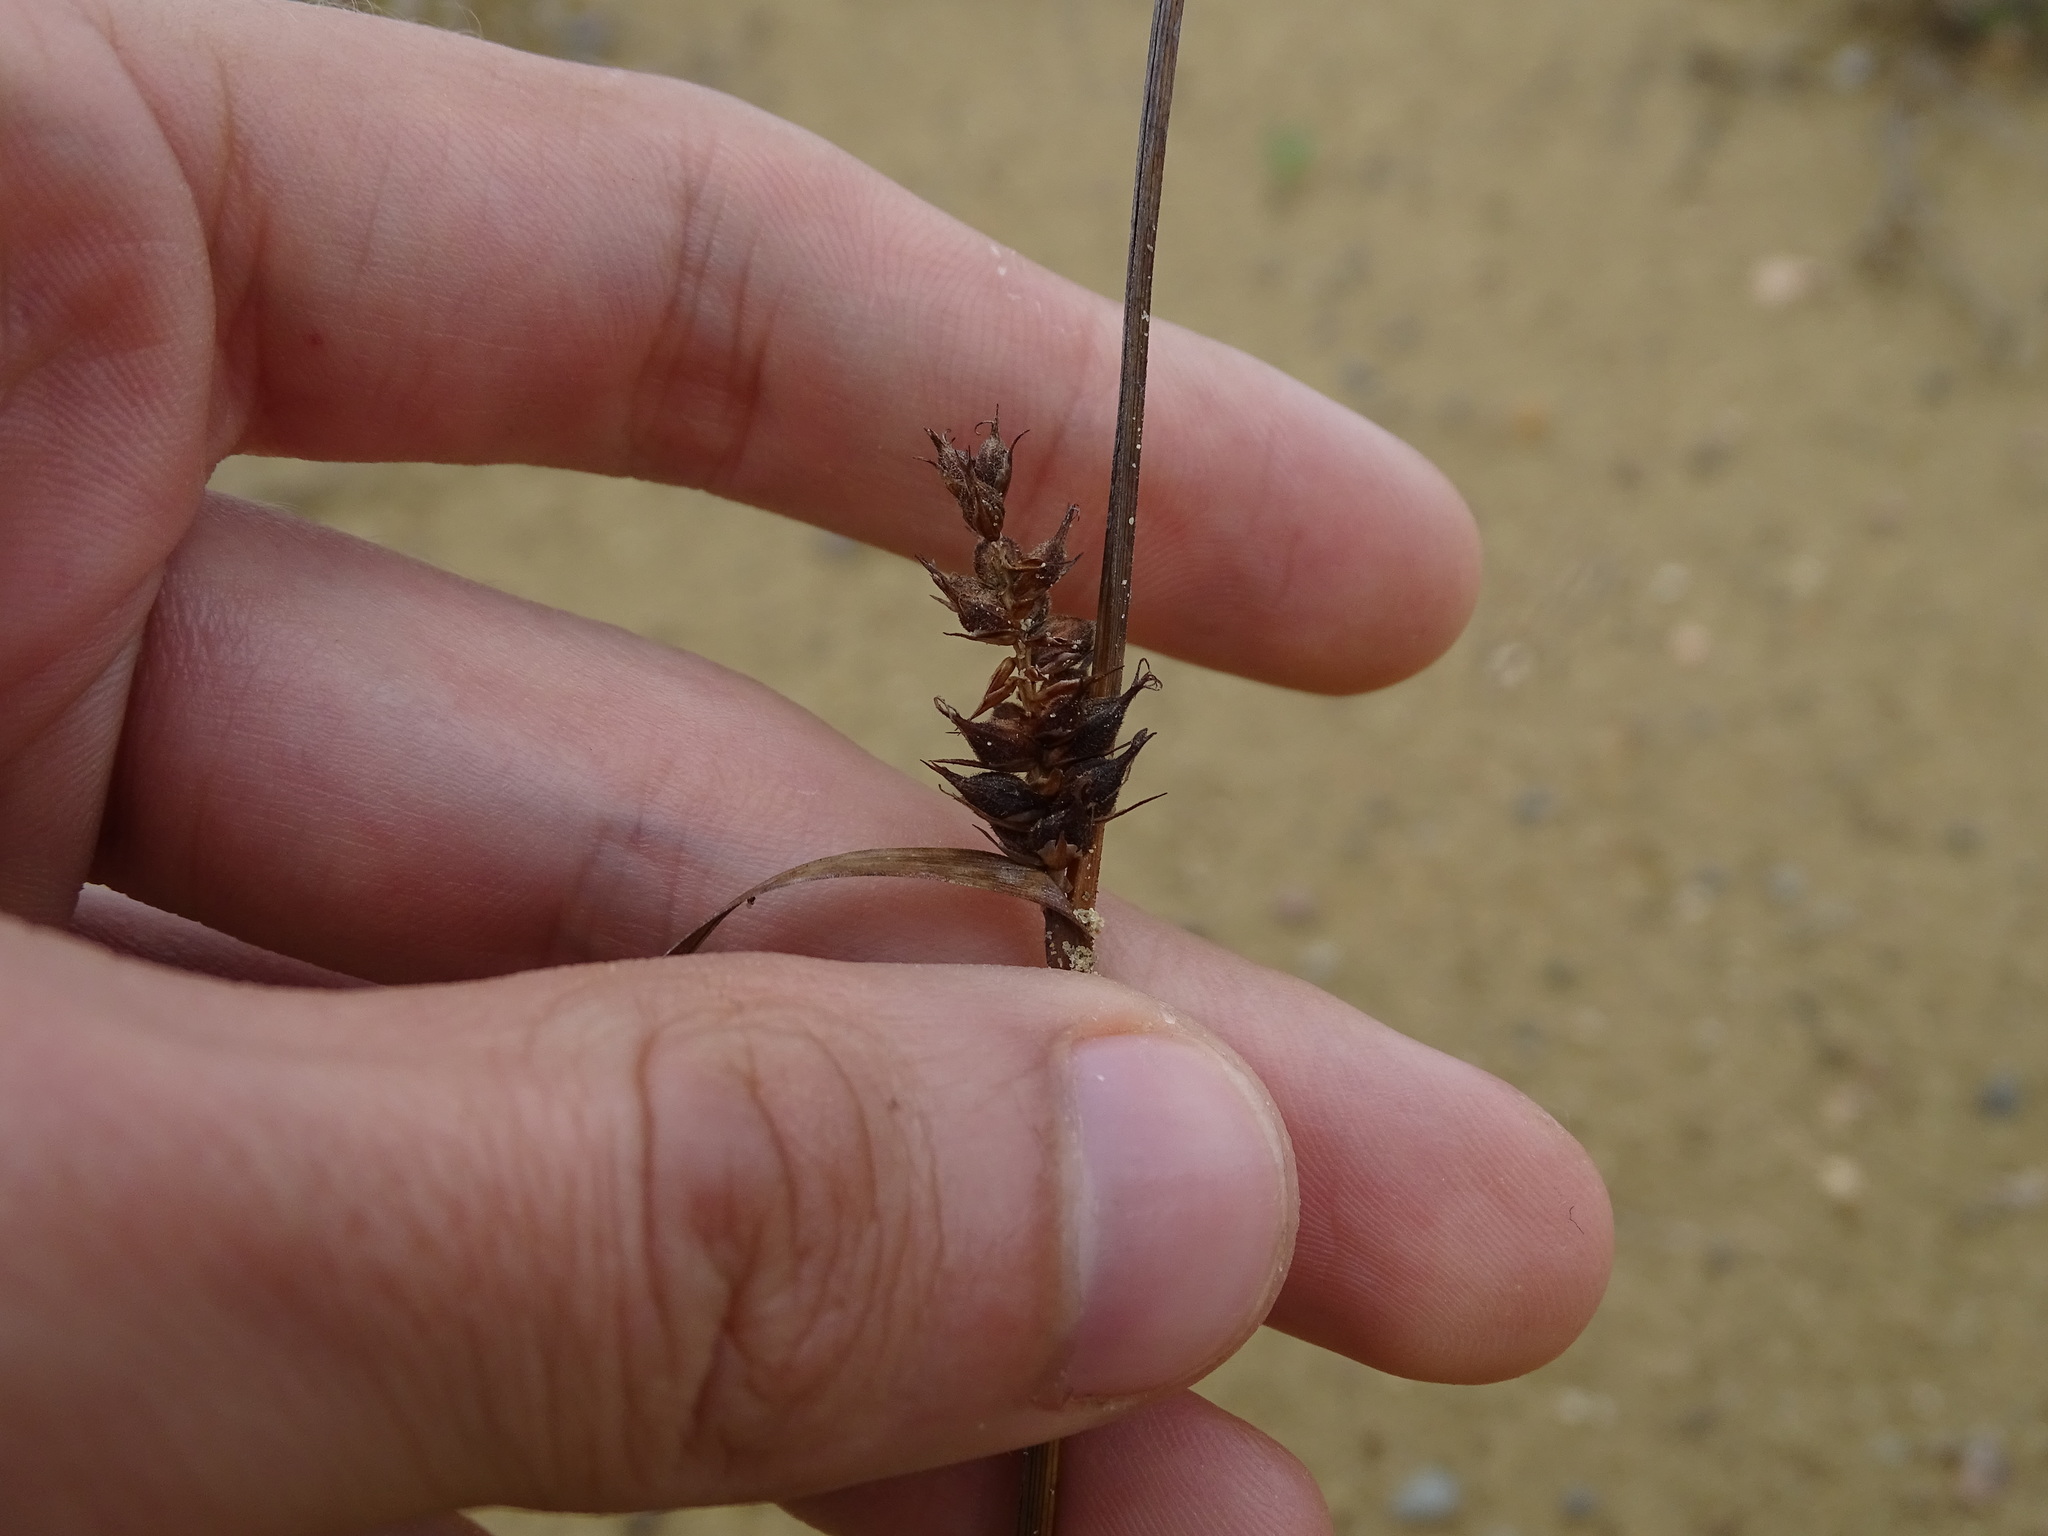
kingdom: Plantae
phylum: Tracheophyta
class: Liliopsida
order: Poales
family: Cyperaceae
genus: Carex
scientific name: Carex houghtoniana
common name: Houghton's sedge
